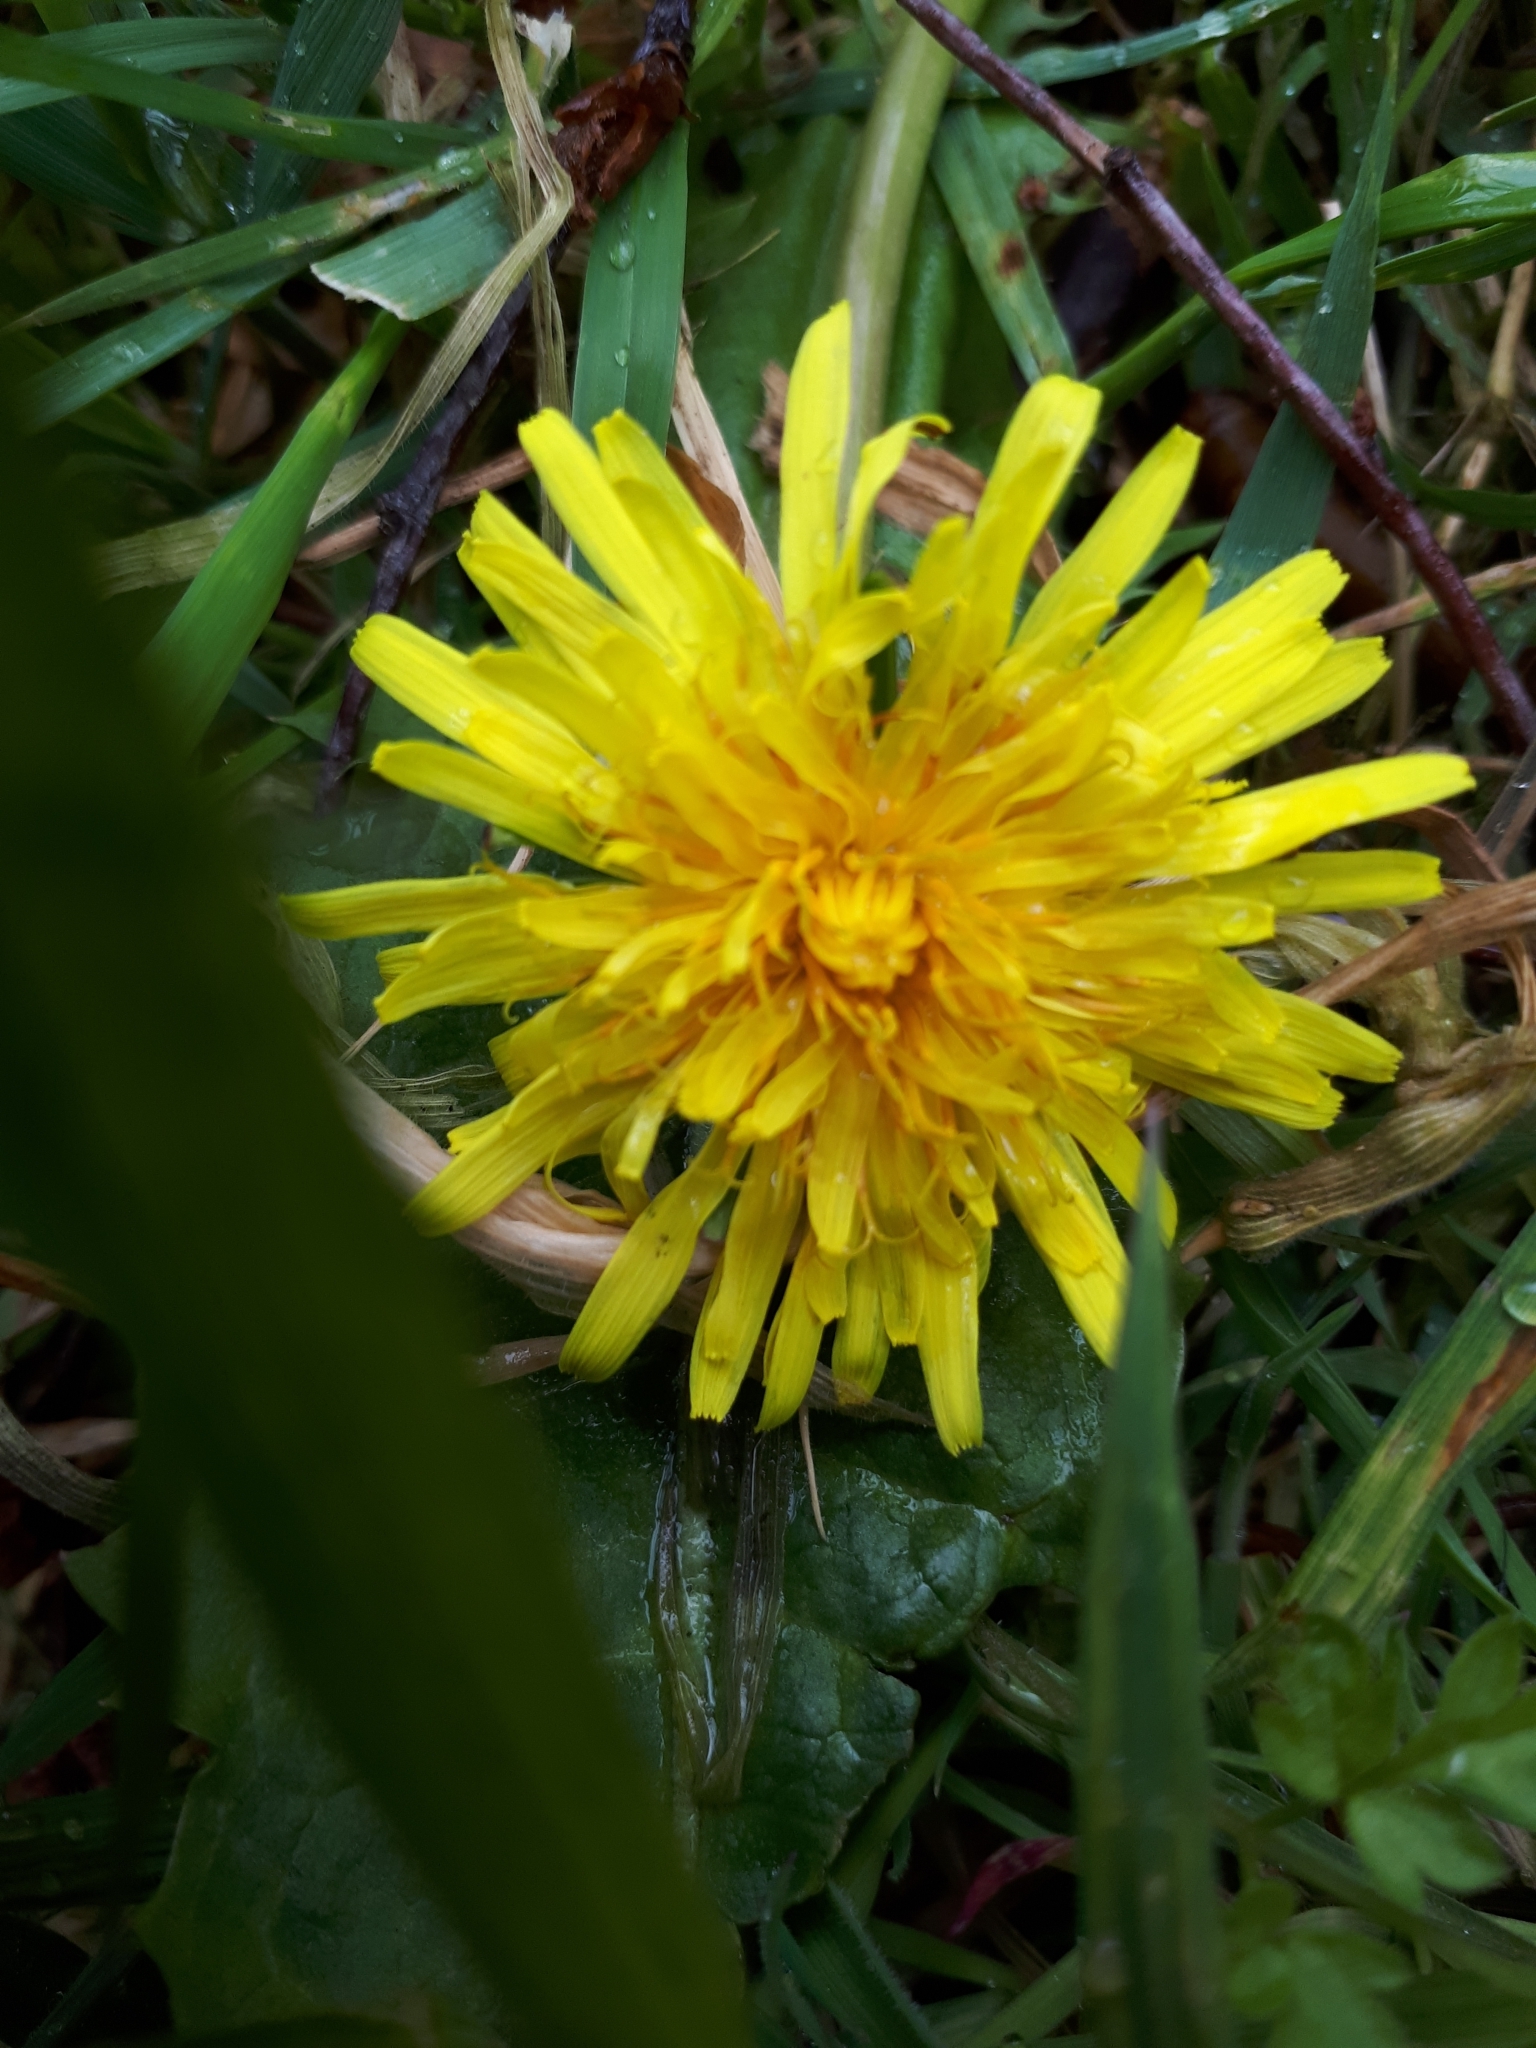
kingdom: Plantae
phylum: Tracheophyta
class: Magnoliopsida
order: Asterales
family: Asteraceae
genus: Taraxacum
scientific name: Taraxacum officinale
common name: Common dandelion
